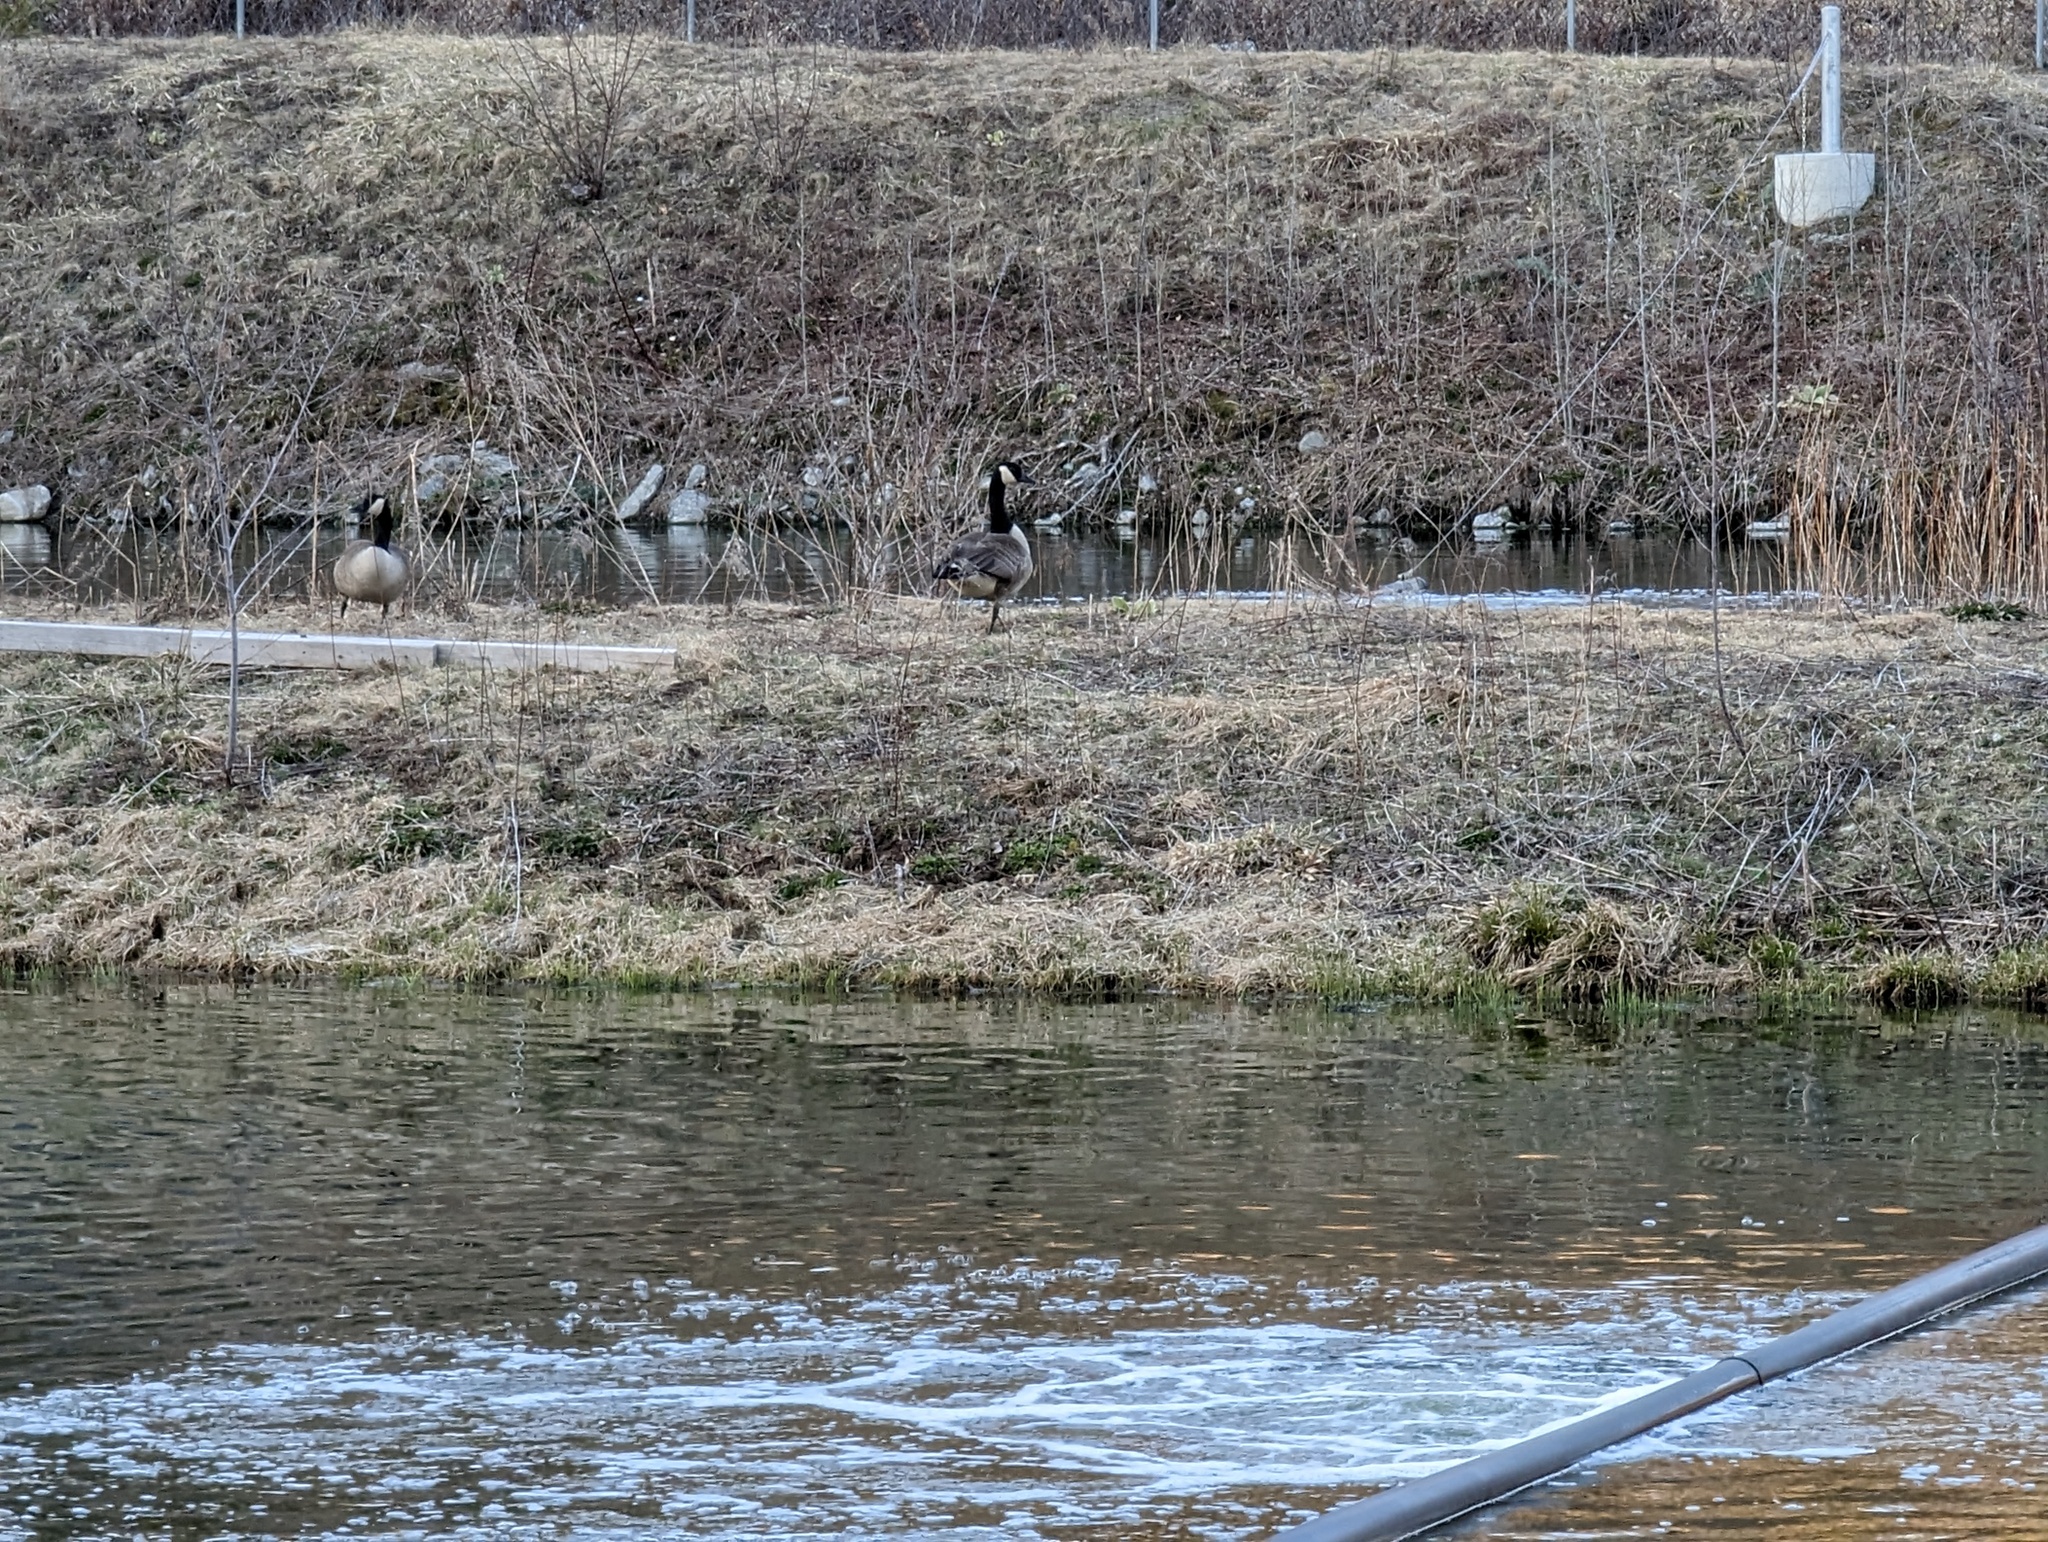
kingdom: Animalia
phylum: Chordata
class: Aves
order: Anseriformes
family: Anatidae
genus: Branta
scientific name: Branta canadensis
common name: Canada goose
